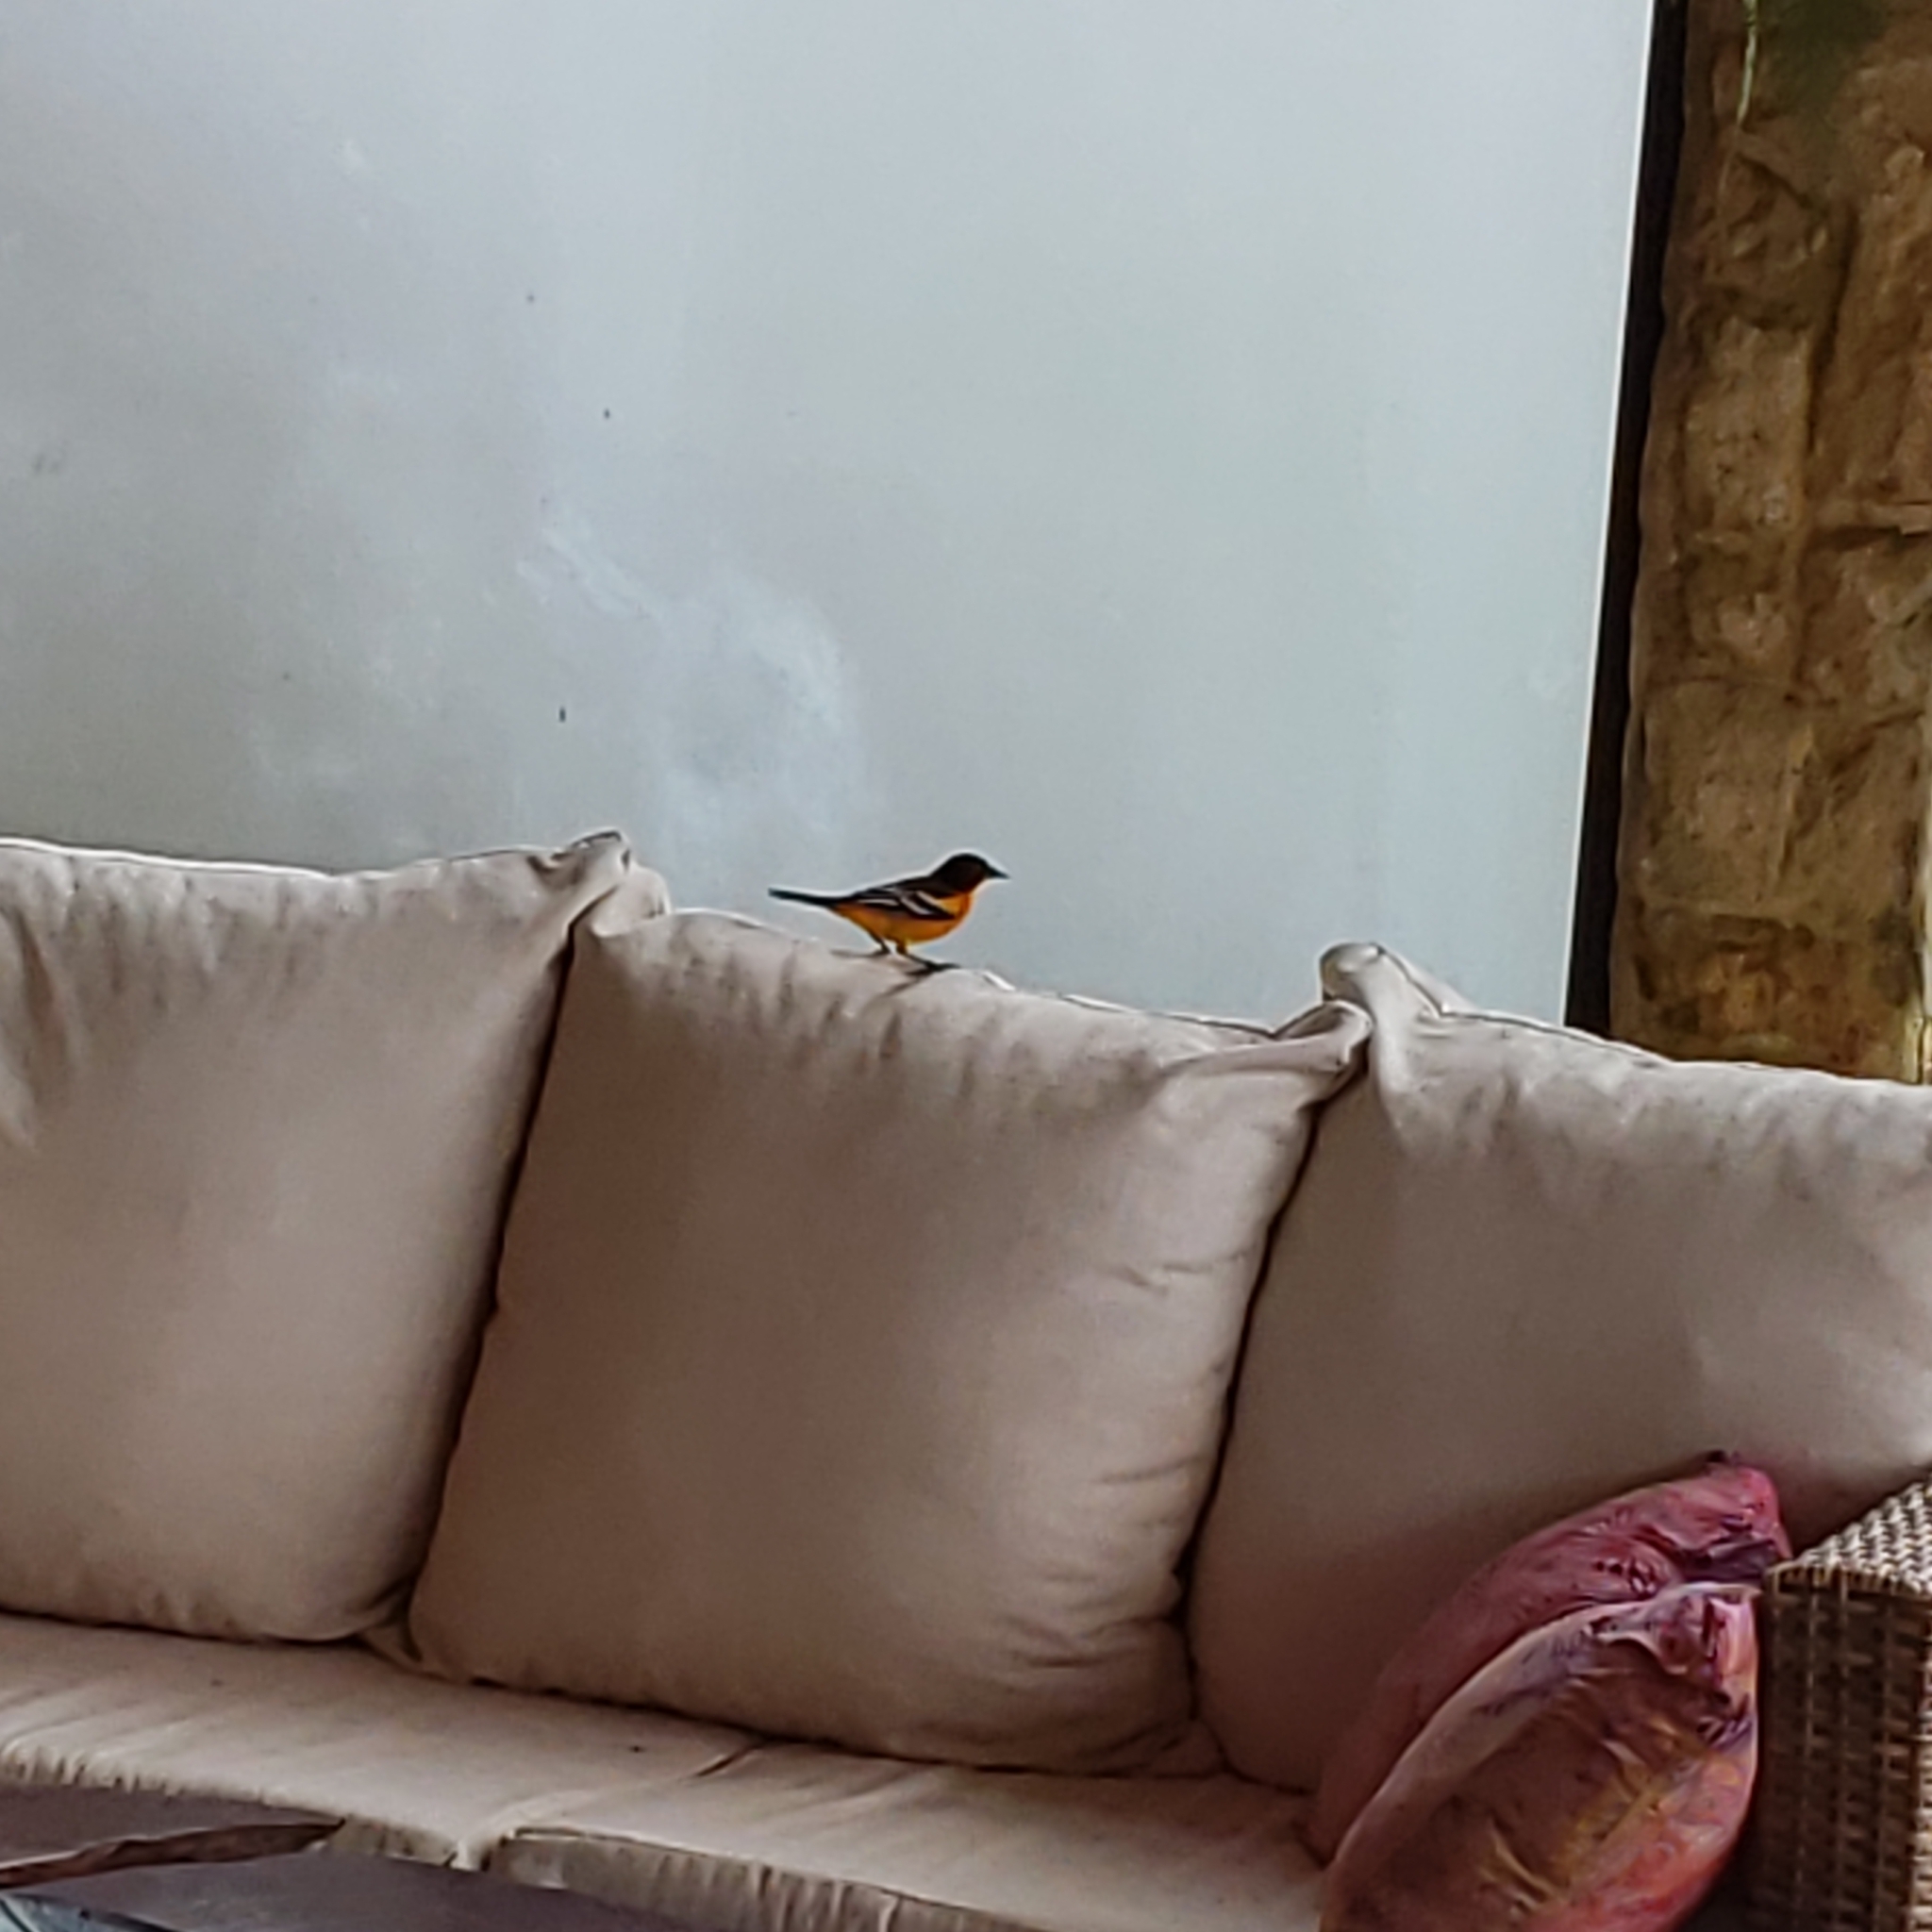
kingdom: Animalia
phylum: Chordata
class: Aves
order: Passeriformes
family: Icteridae
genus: Icterus
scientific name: Icterus galbula
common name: Baltimore oriole
